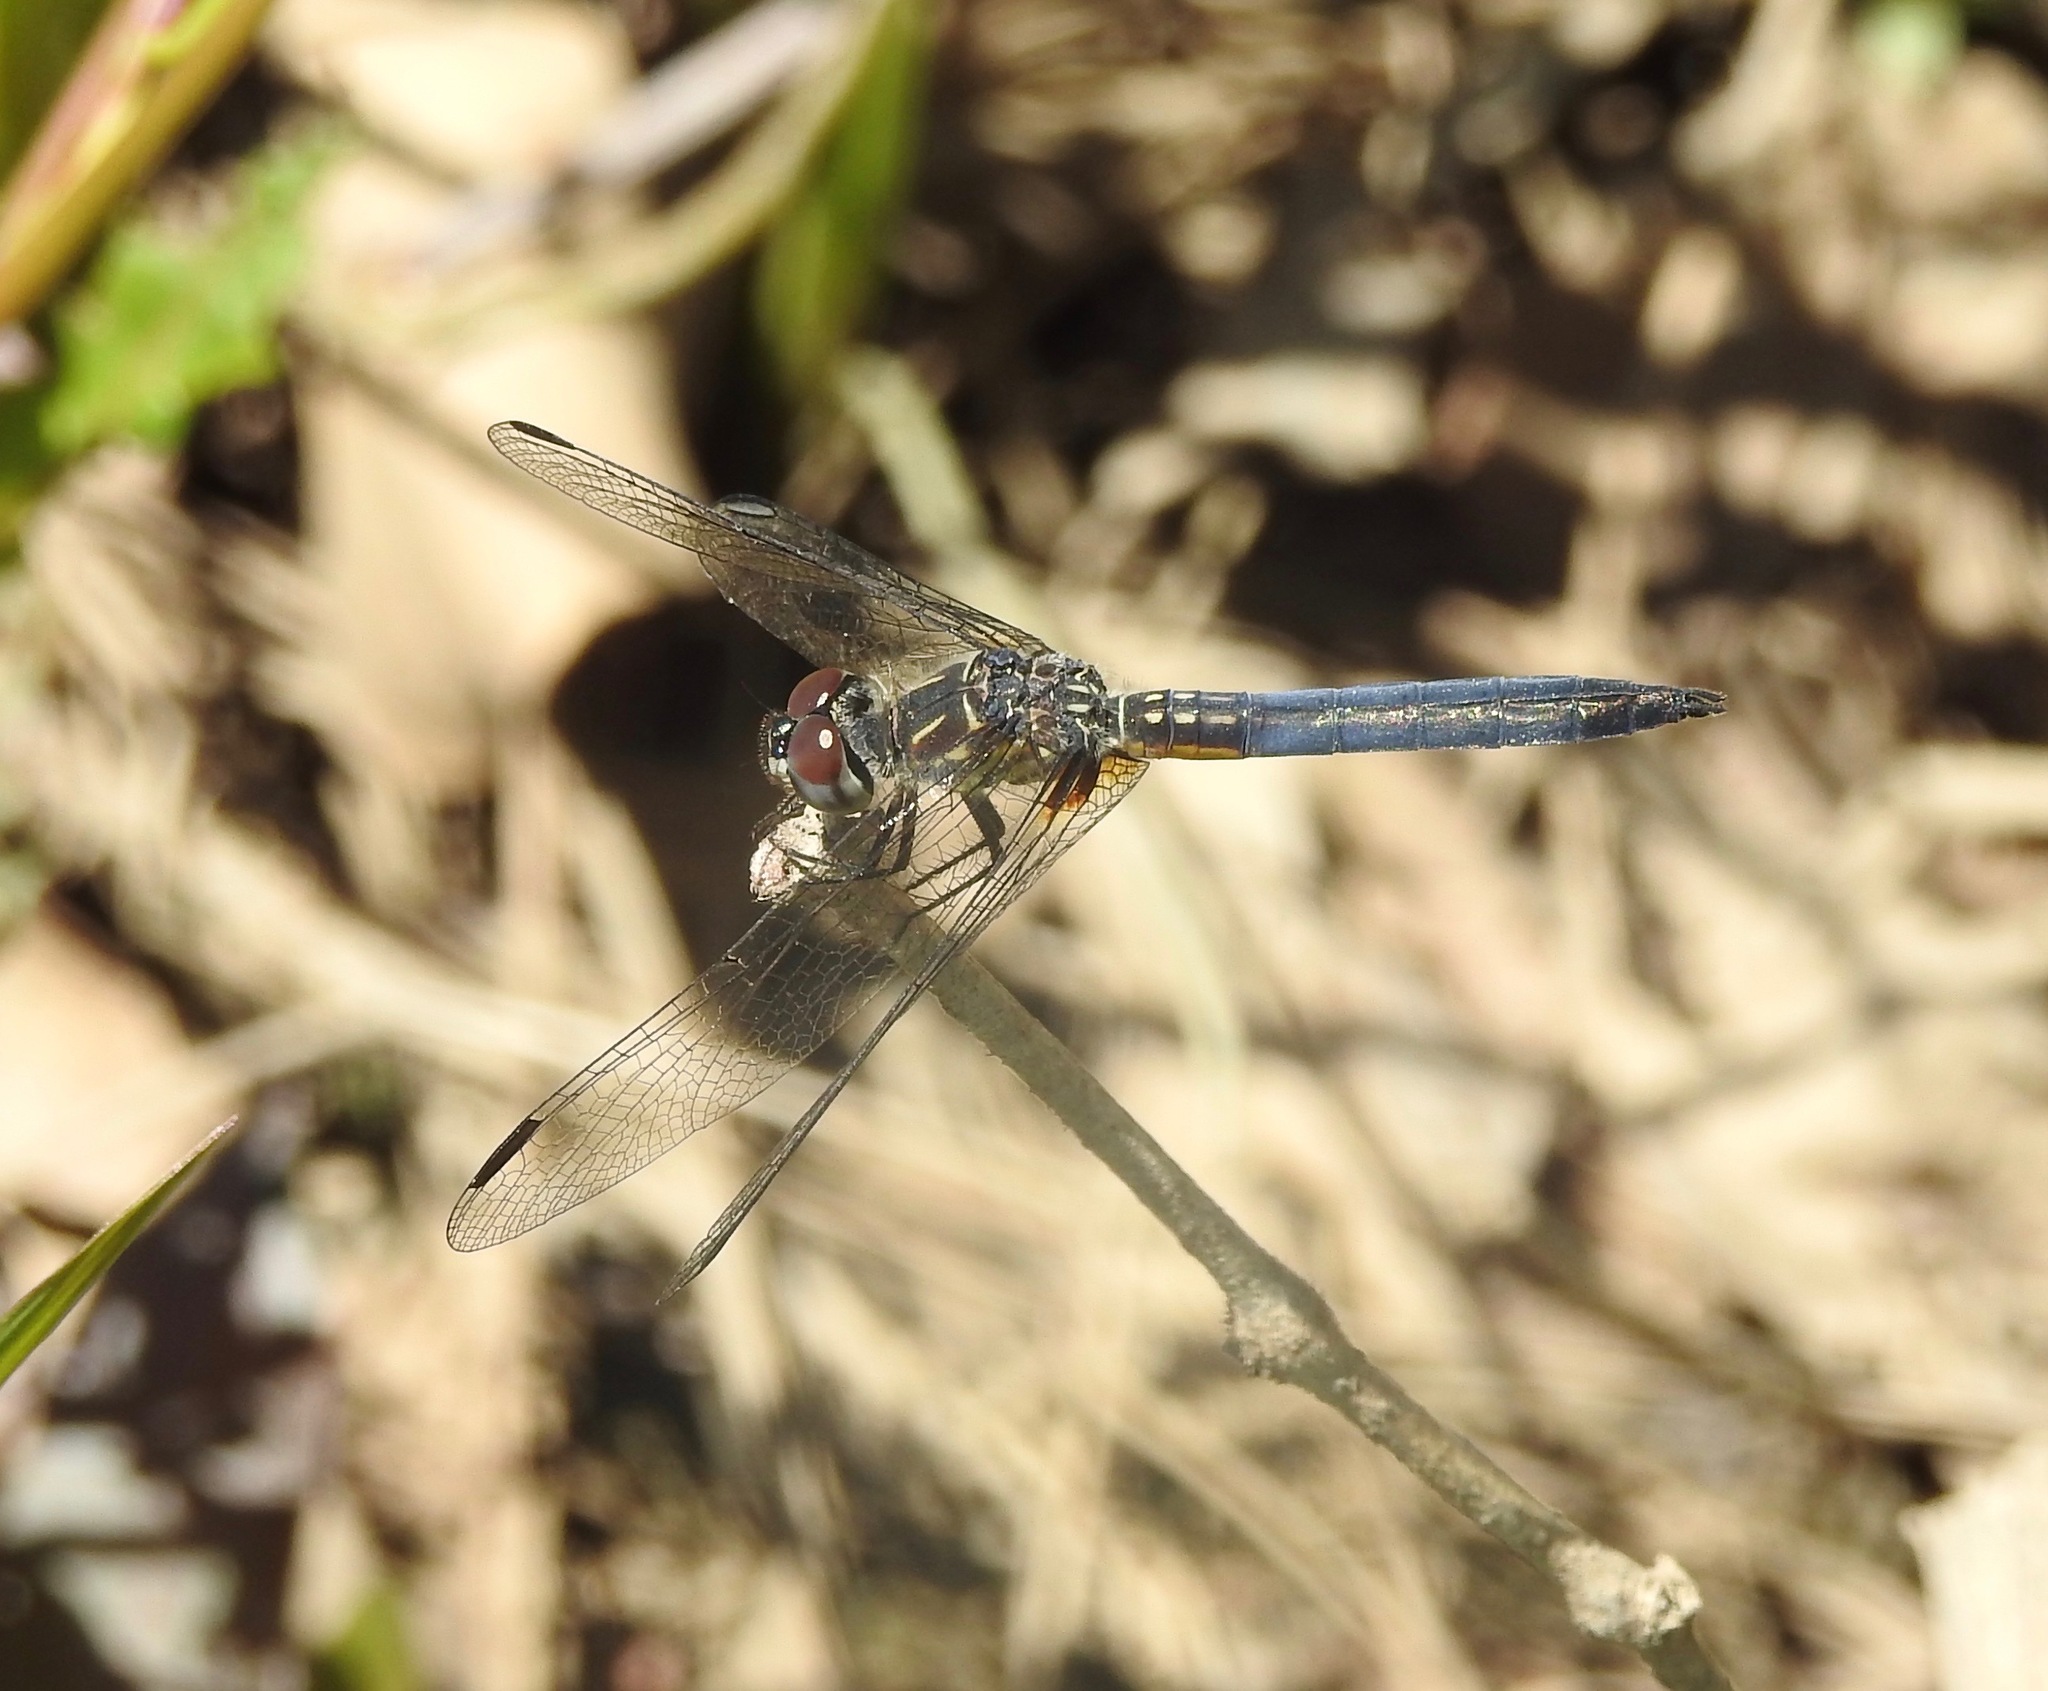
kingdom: Animalia
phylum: Arthropoda
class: Insecta
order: Odonata
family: Libellulidae
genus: Pachydiplax
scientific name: Pachydiplax longipennis
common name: Blue dasher
